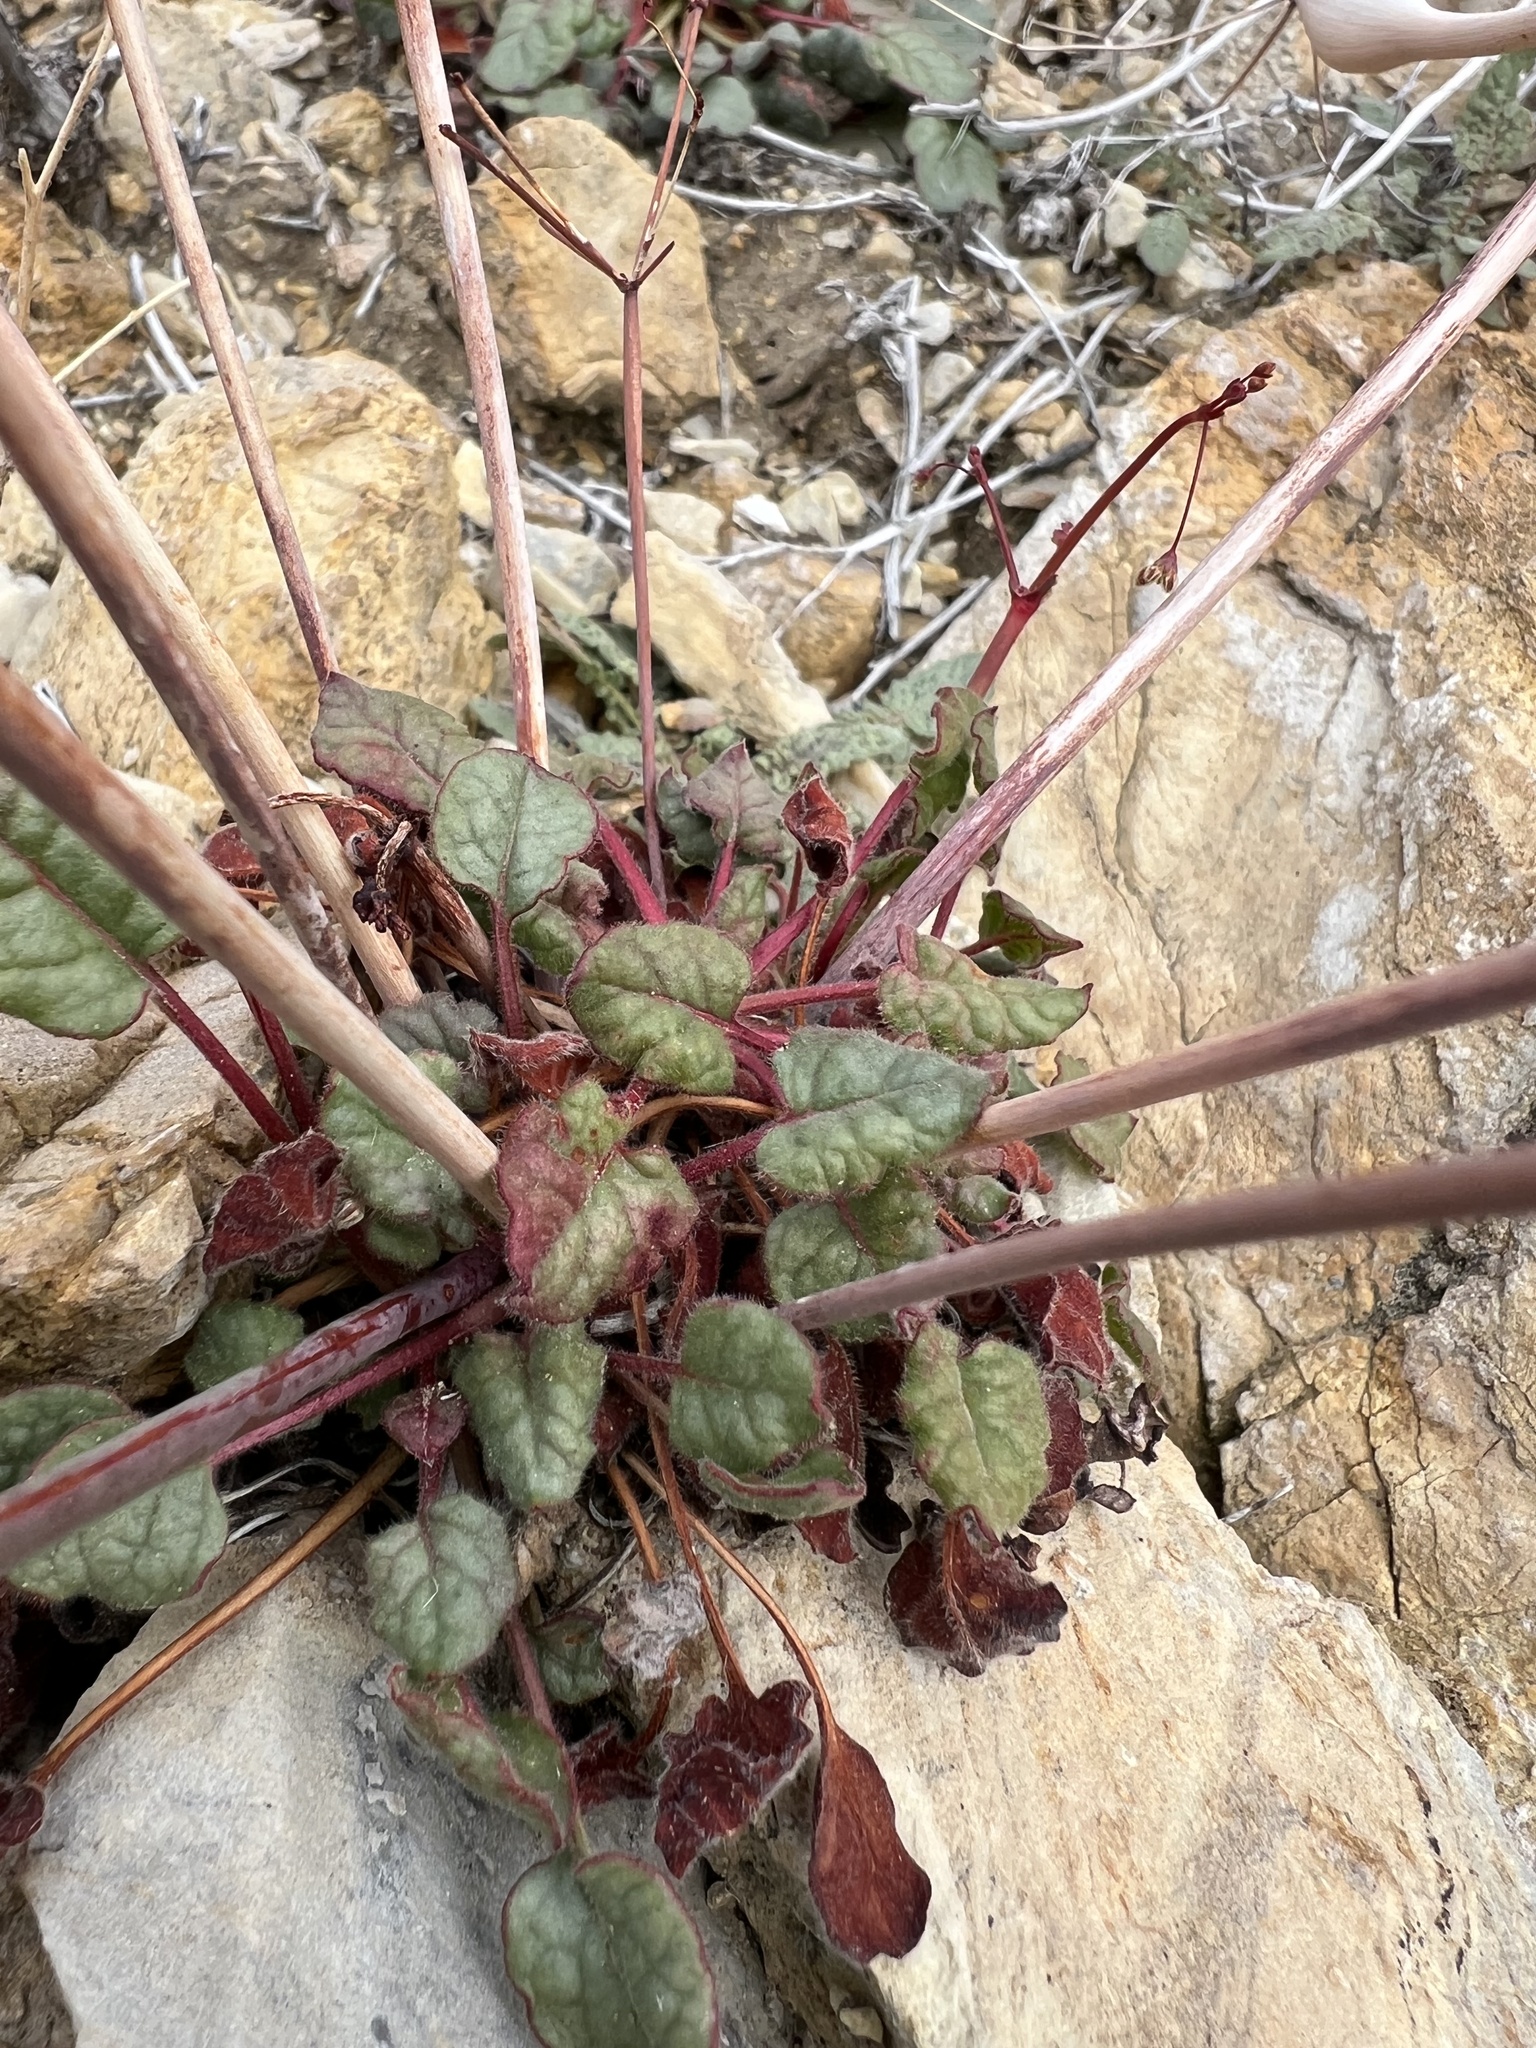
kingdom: Plantae
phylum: Tracheophyta
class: Magnoliopsida
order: Caryophyllales
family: Polygonaceae
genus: Eriogonum
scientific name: Eriogonum inflatum
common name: Desert trumpet
